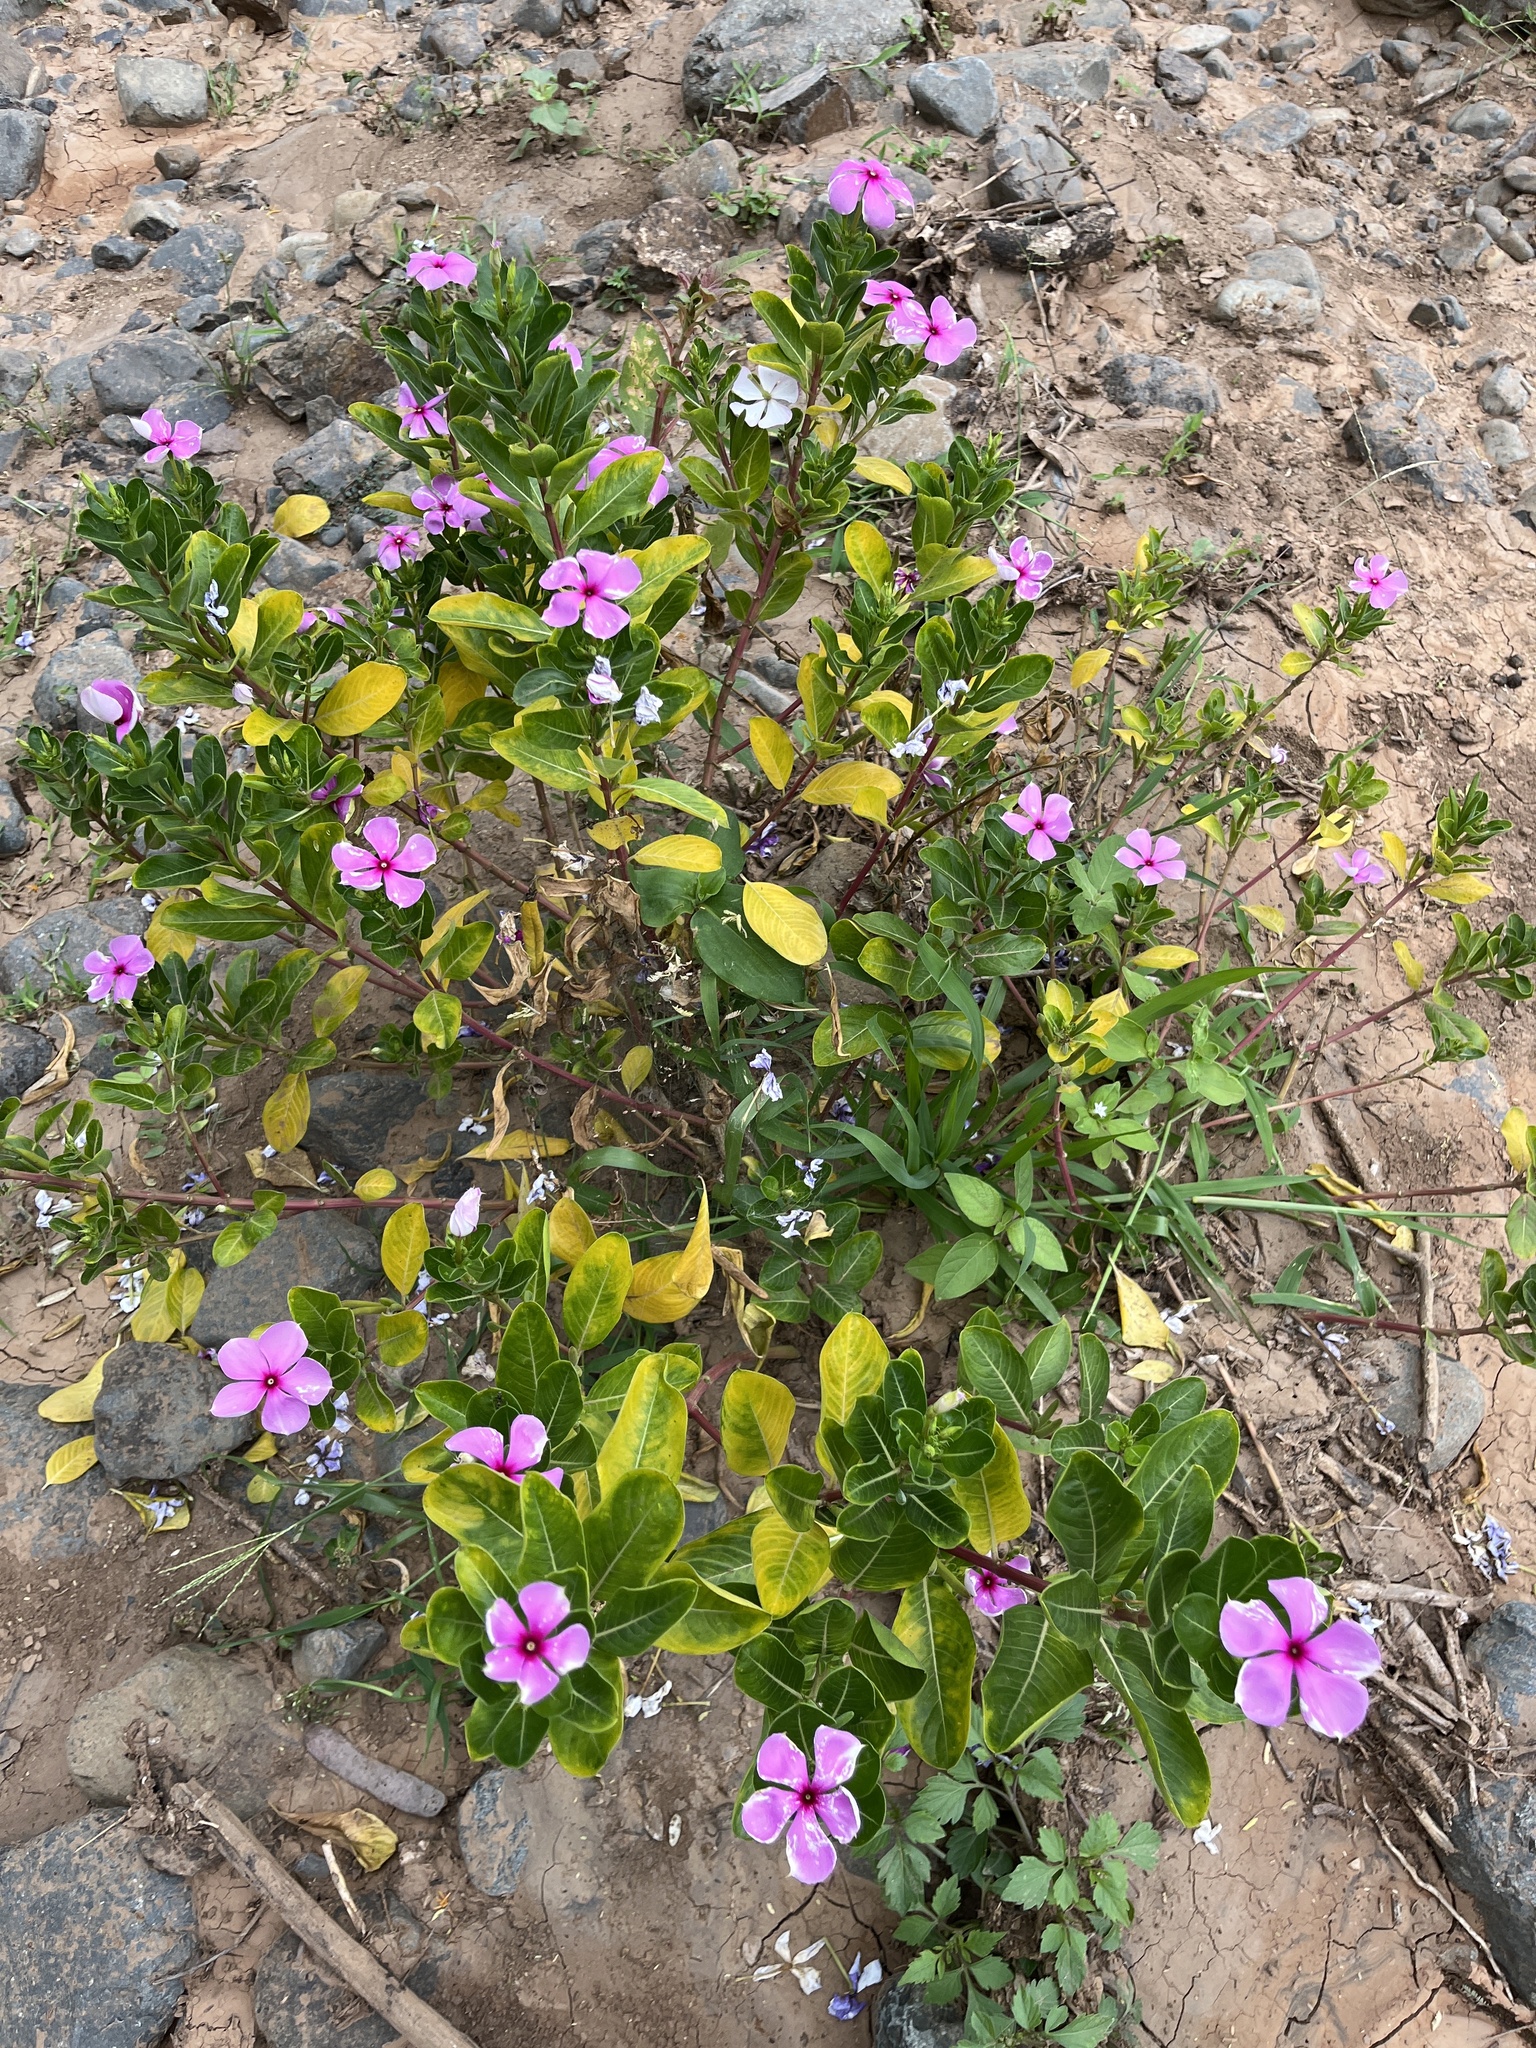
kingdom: Plantae
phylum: Tracheophyta
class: Magnoliopsida
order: Gentianales
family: Apocynaceae
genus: Catharanthus
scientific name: Catharanthus roseus
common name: Madagascar periwinkle
